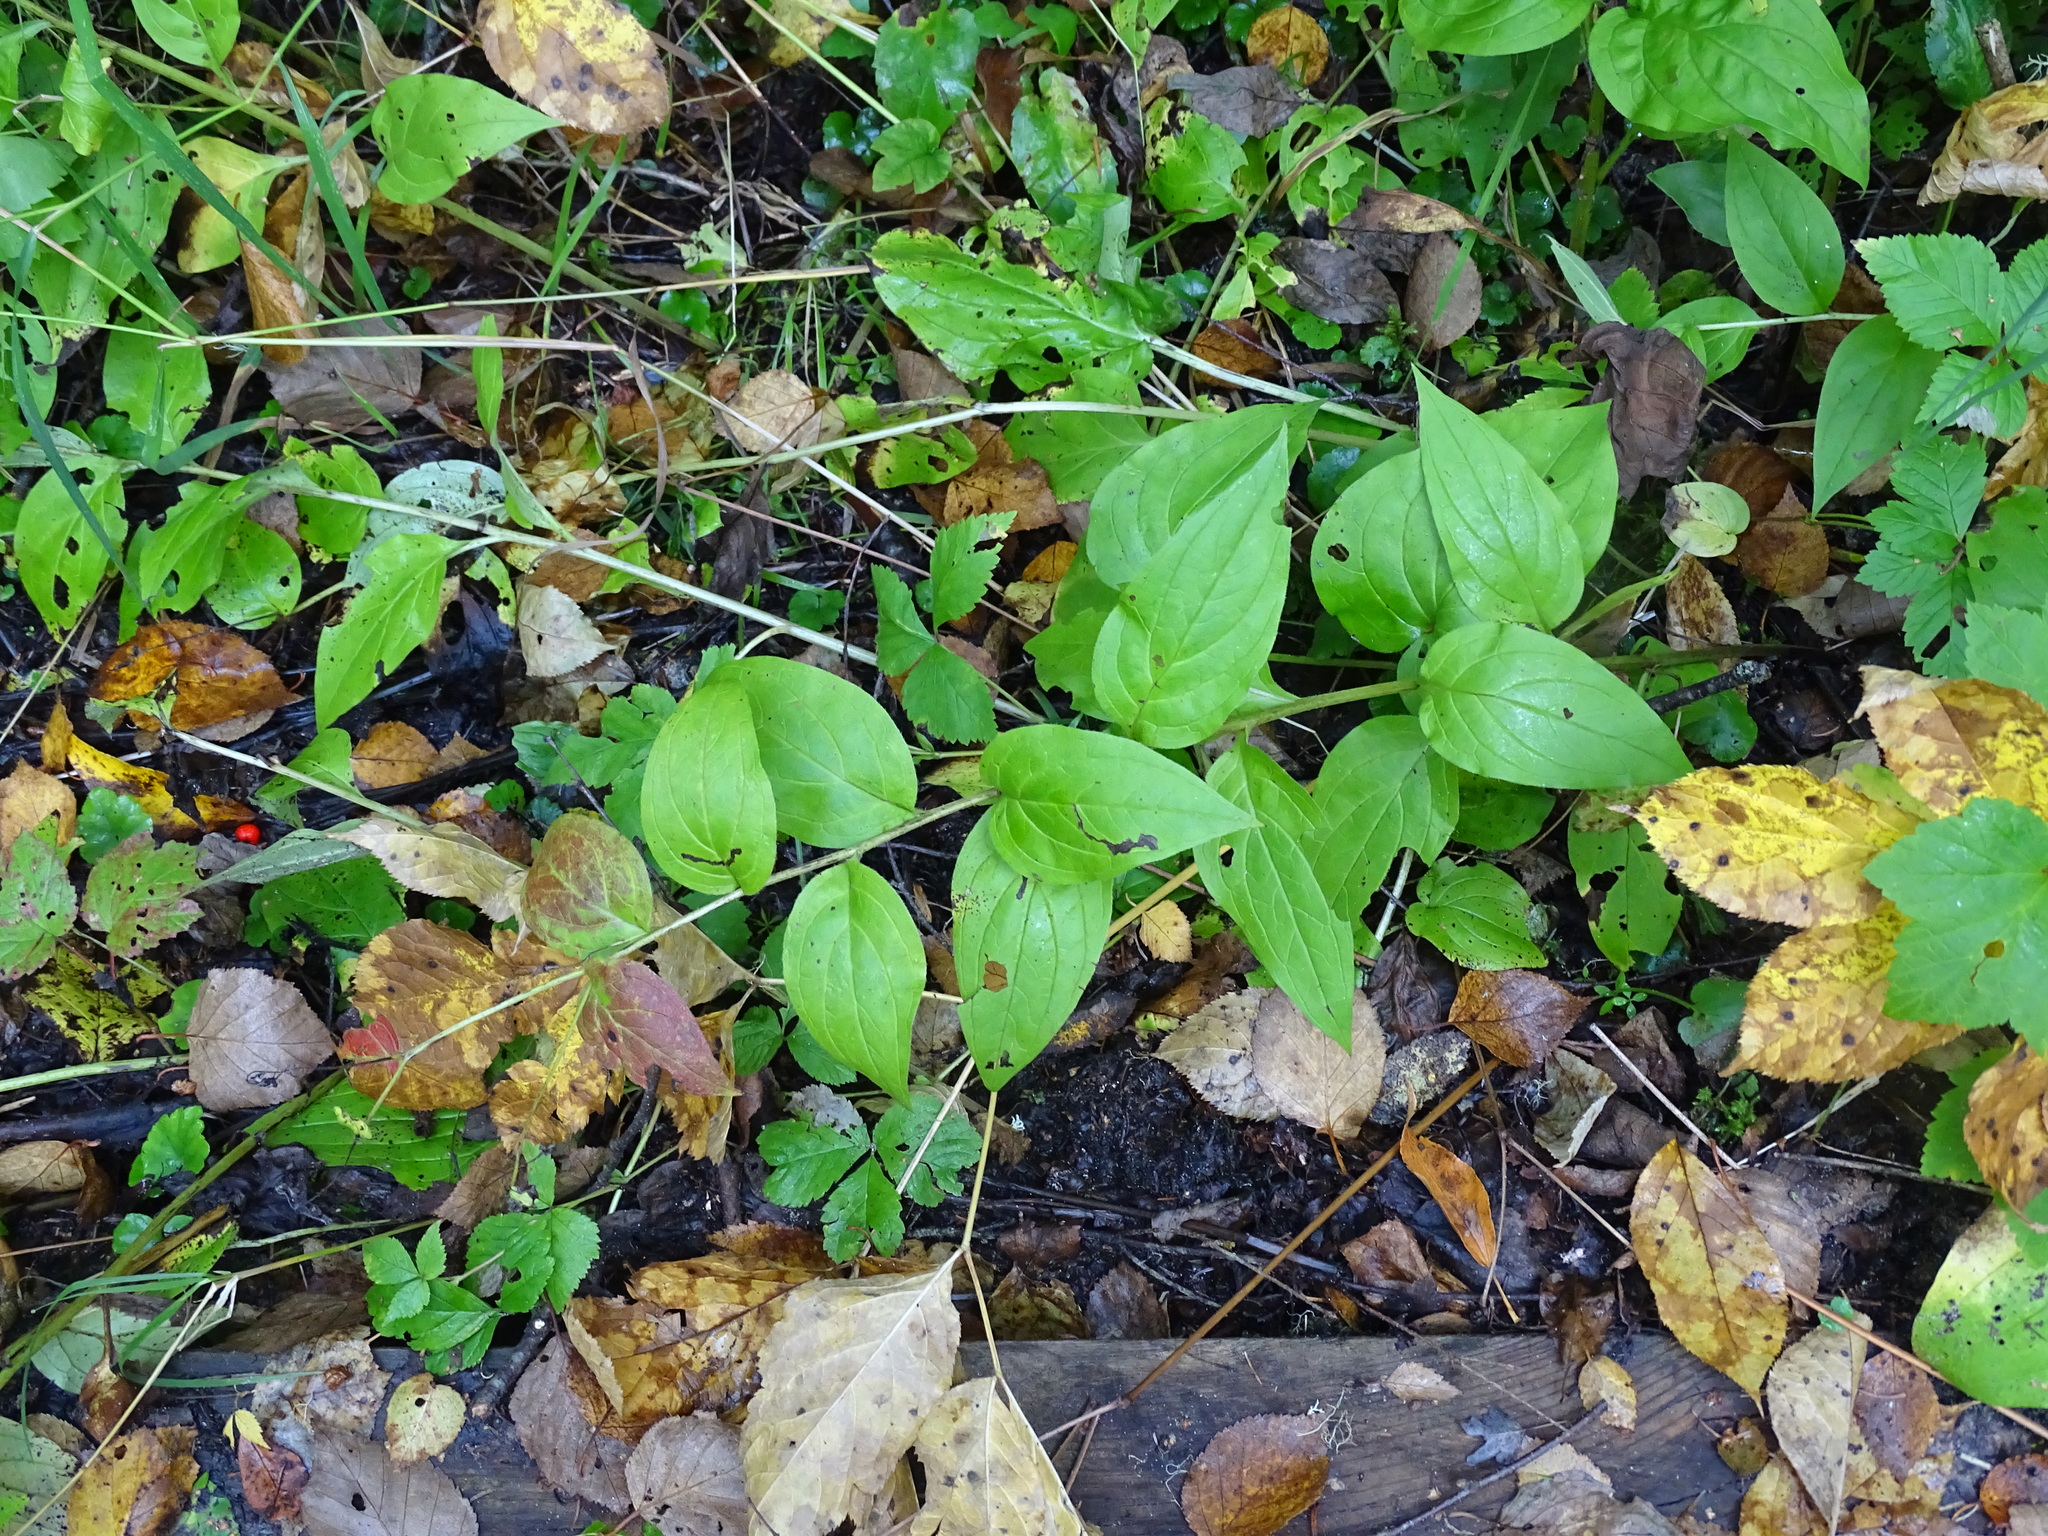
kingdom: Plantae
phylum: Tracheophyta
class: Magnoliopsida
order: Boraginales
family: Boraginaceae
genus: Mertensia
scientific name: Mertensia paniculata
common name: Panicled bluebells
